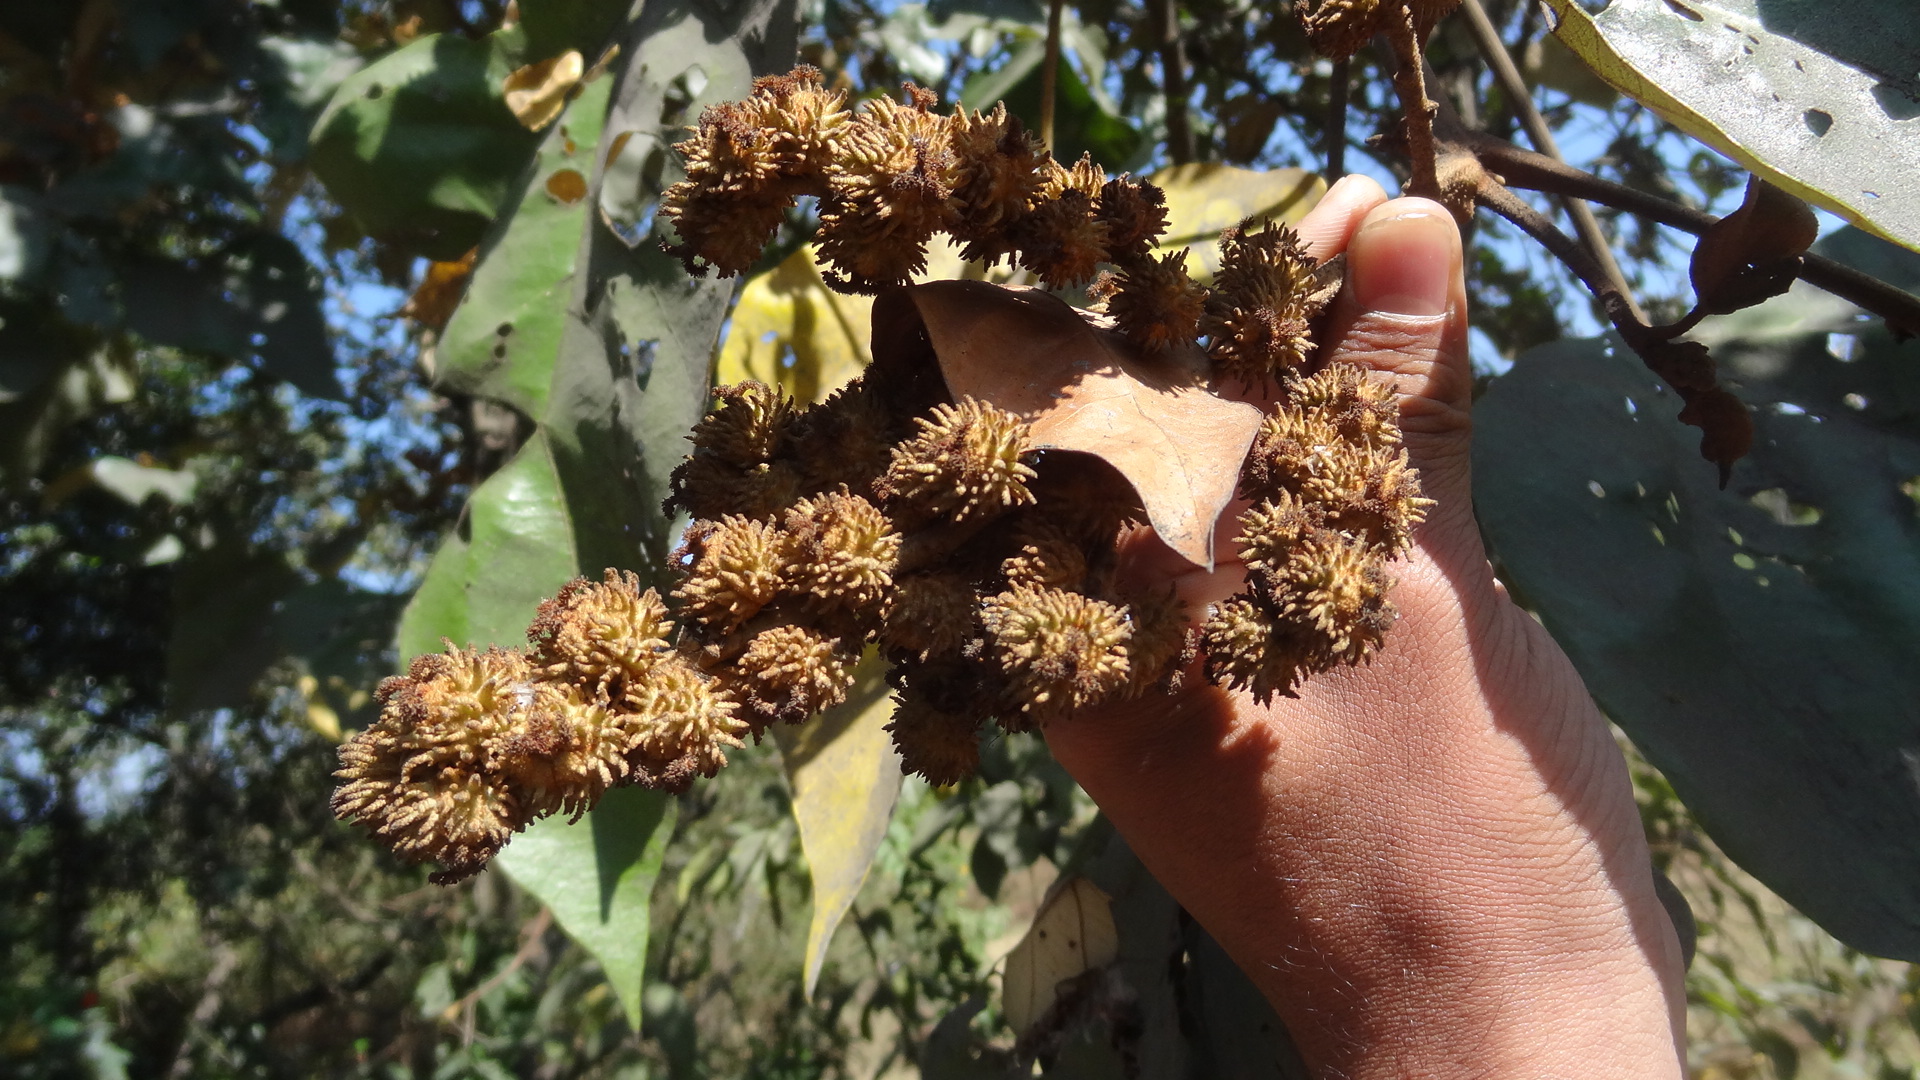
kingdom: Plantae
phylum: Tracheophyta
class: Magnoliopsida
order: Malpighiales
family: Euphorbiaceae
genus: Mallotus
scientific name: Mallotus tetracoccus
